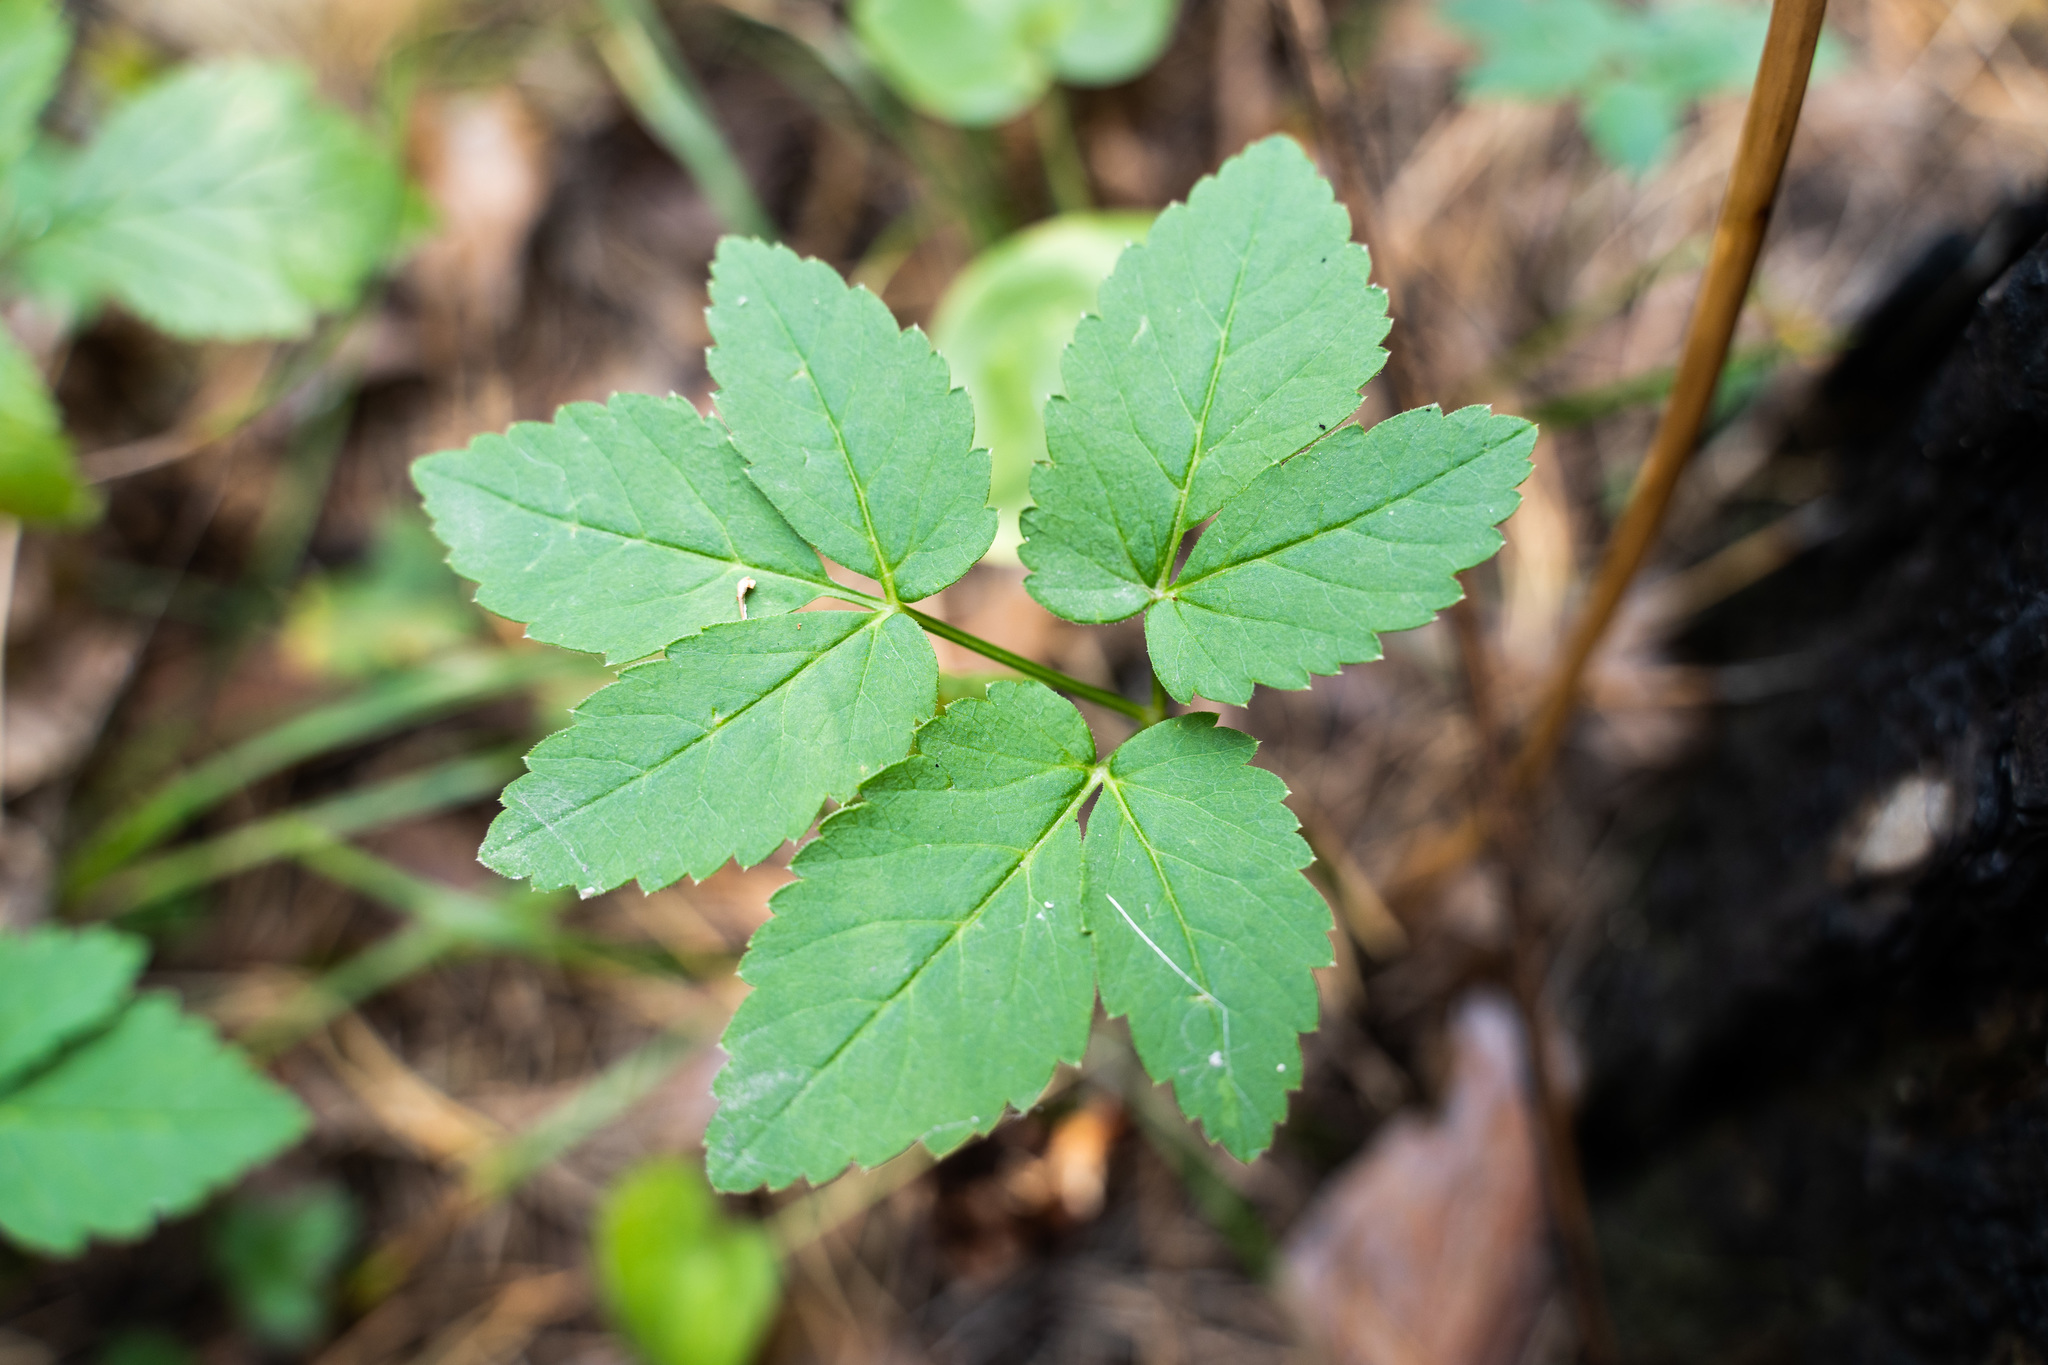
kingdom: Plantae
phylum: Tracheophyta
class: Magnoliopsida
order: Apiales
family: Apiaceae
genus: Aegopodium
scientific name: Aegopodium podagraria
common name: Ground-elder
